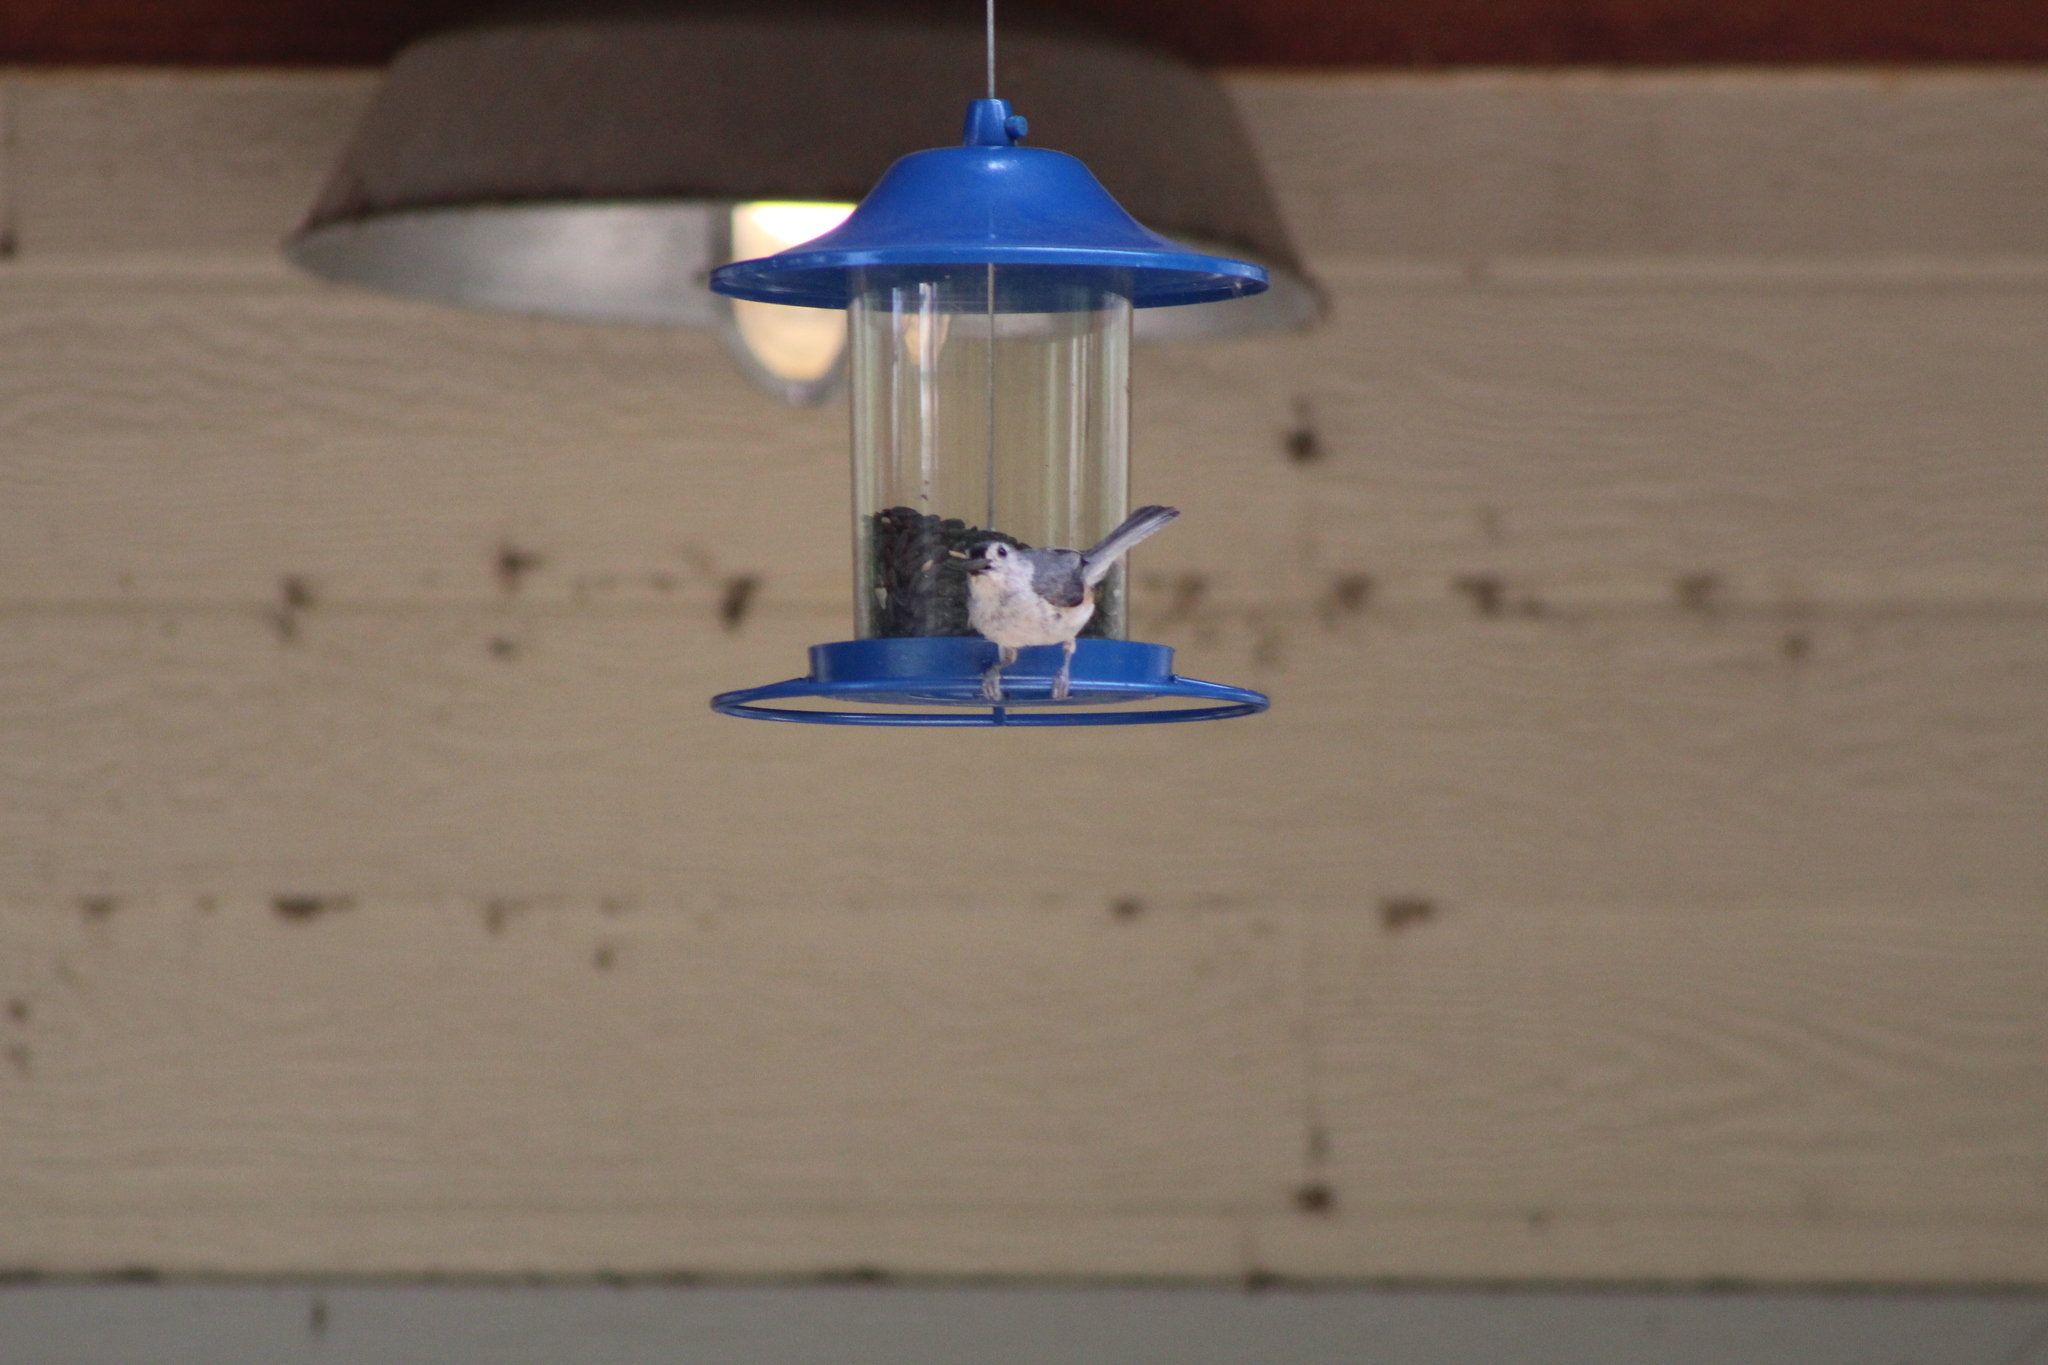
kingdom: Animalia
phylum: Chordata
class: Aves
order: Passeriformes
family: Paridae
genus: Baeolophus
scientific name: Baeolophus bicolor
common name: Tufted titmouse
